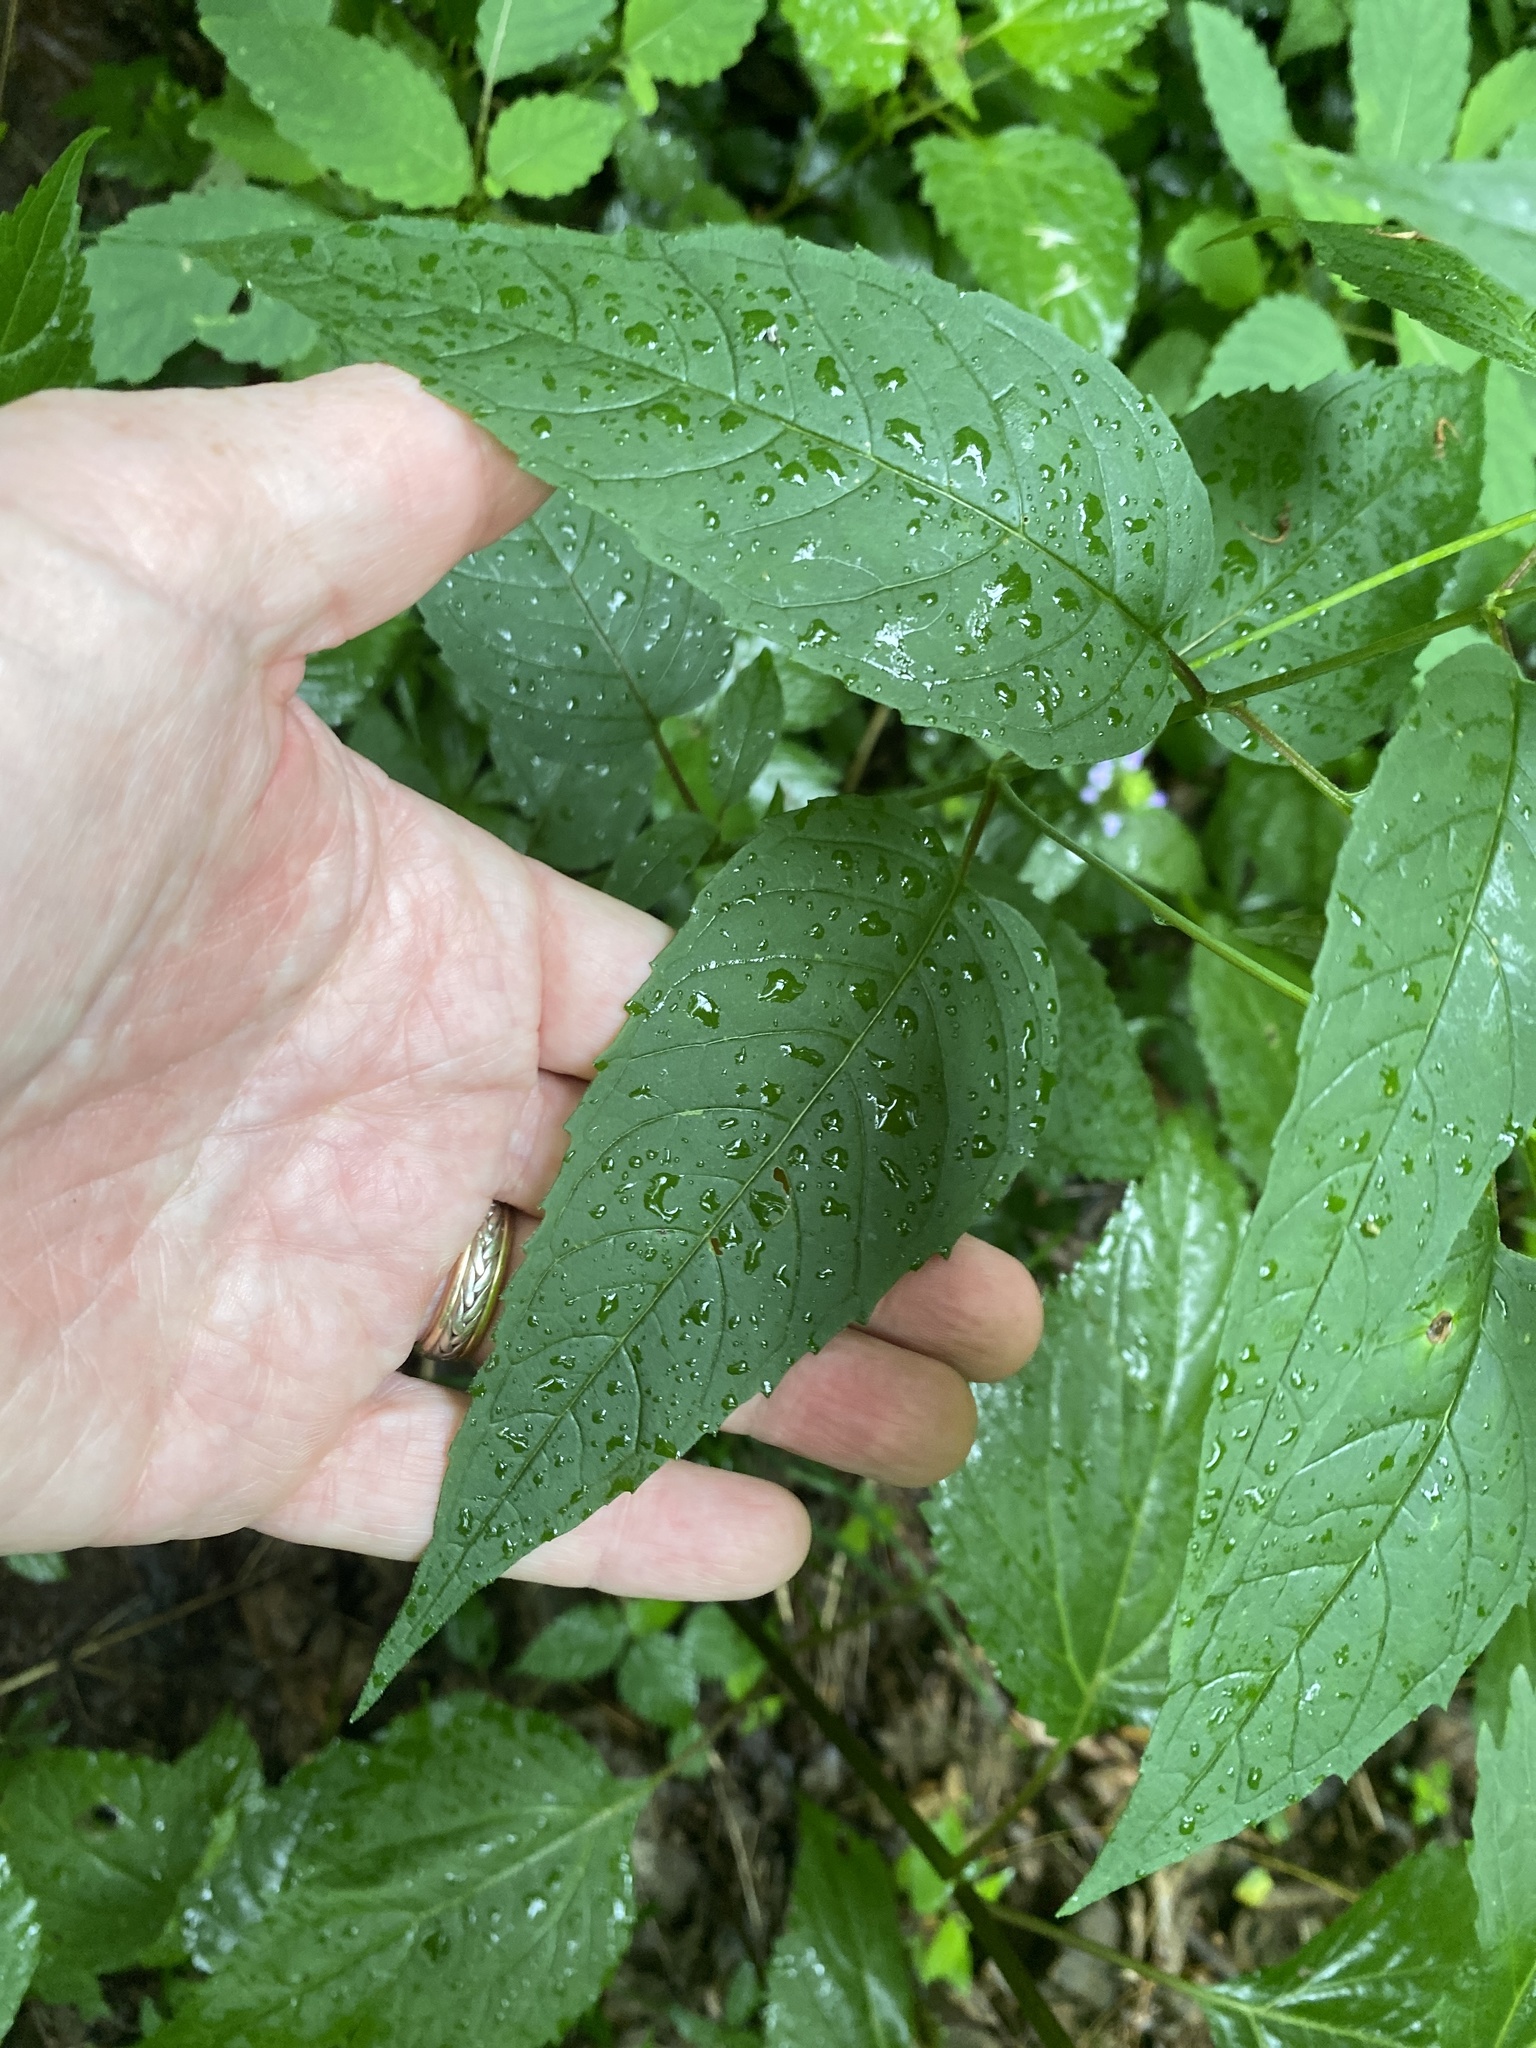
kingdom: Plantae
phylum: Tracheophyta
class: Magnoliopsida
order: Lamiales
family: Lamiaceae
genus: Monarda
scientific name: Monarda clinopodia
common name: Basil beebalm
